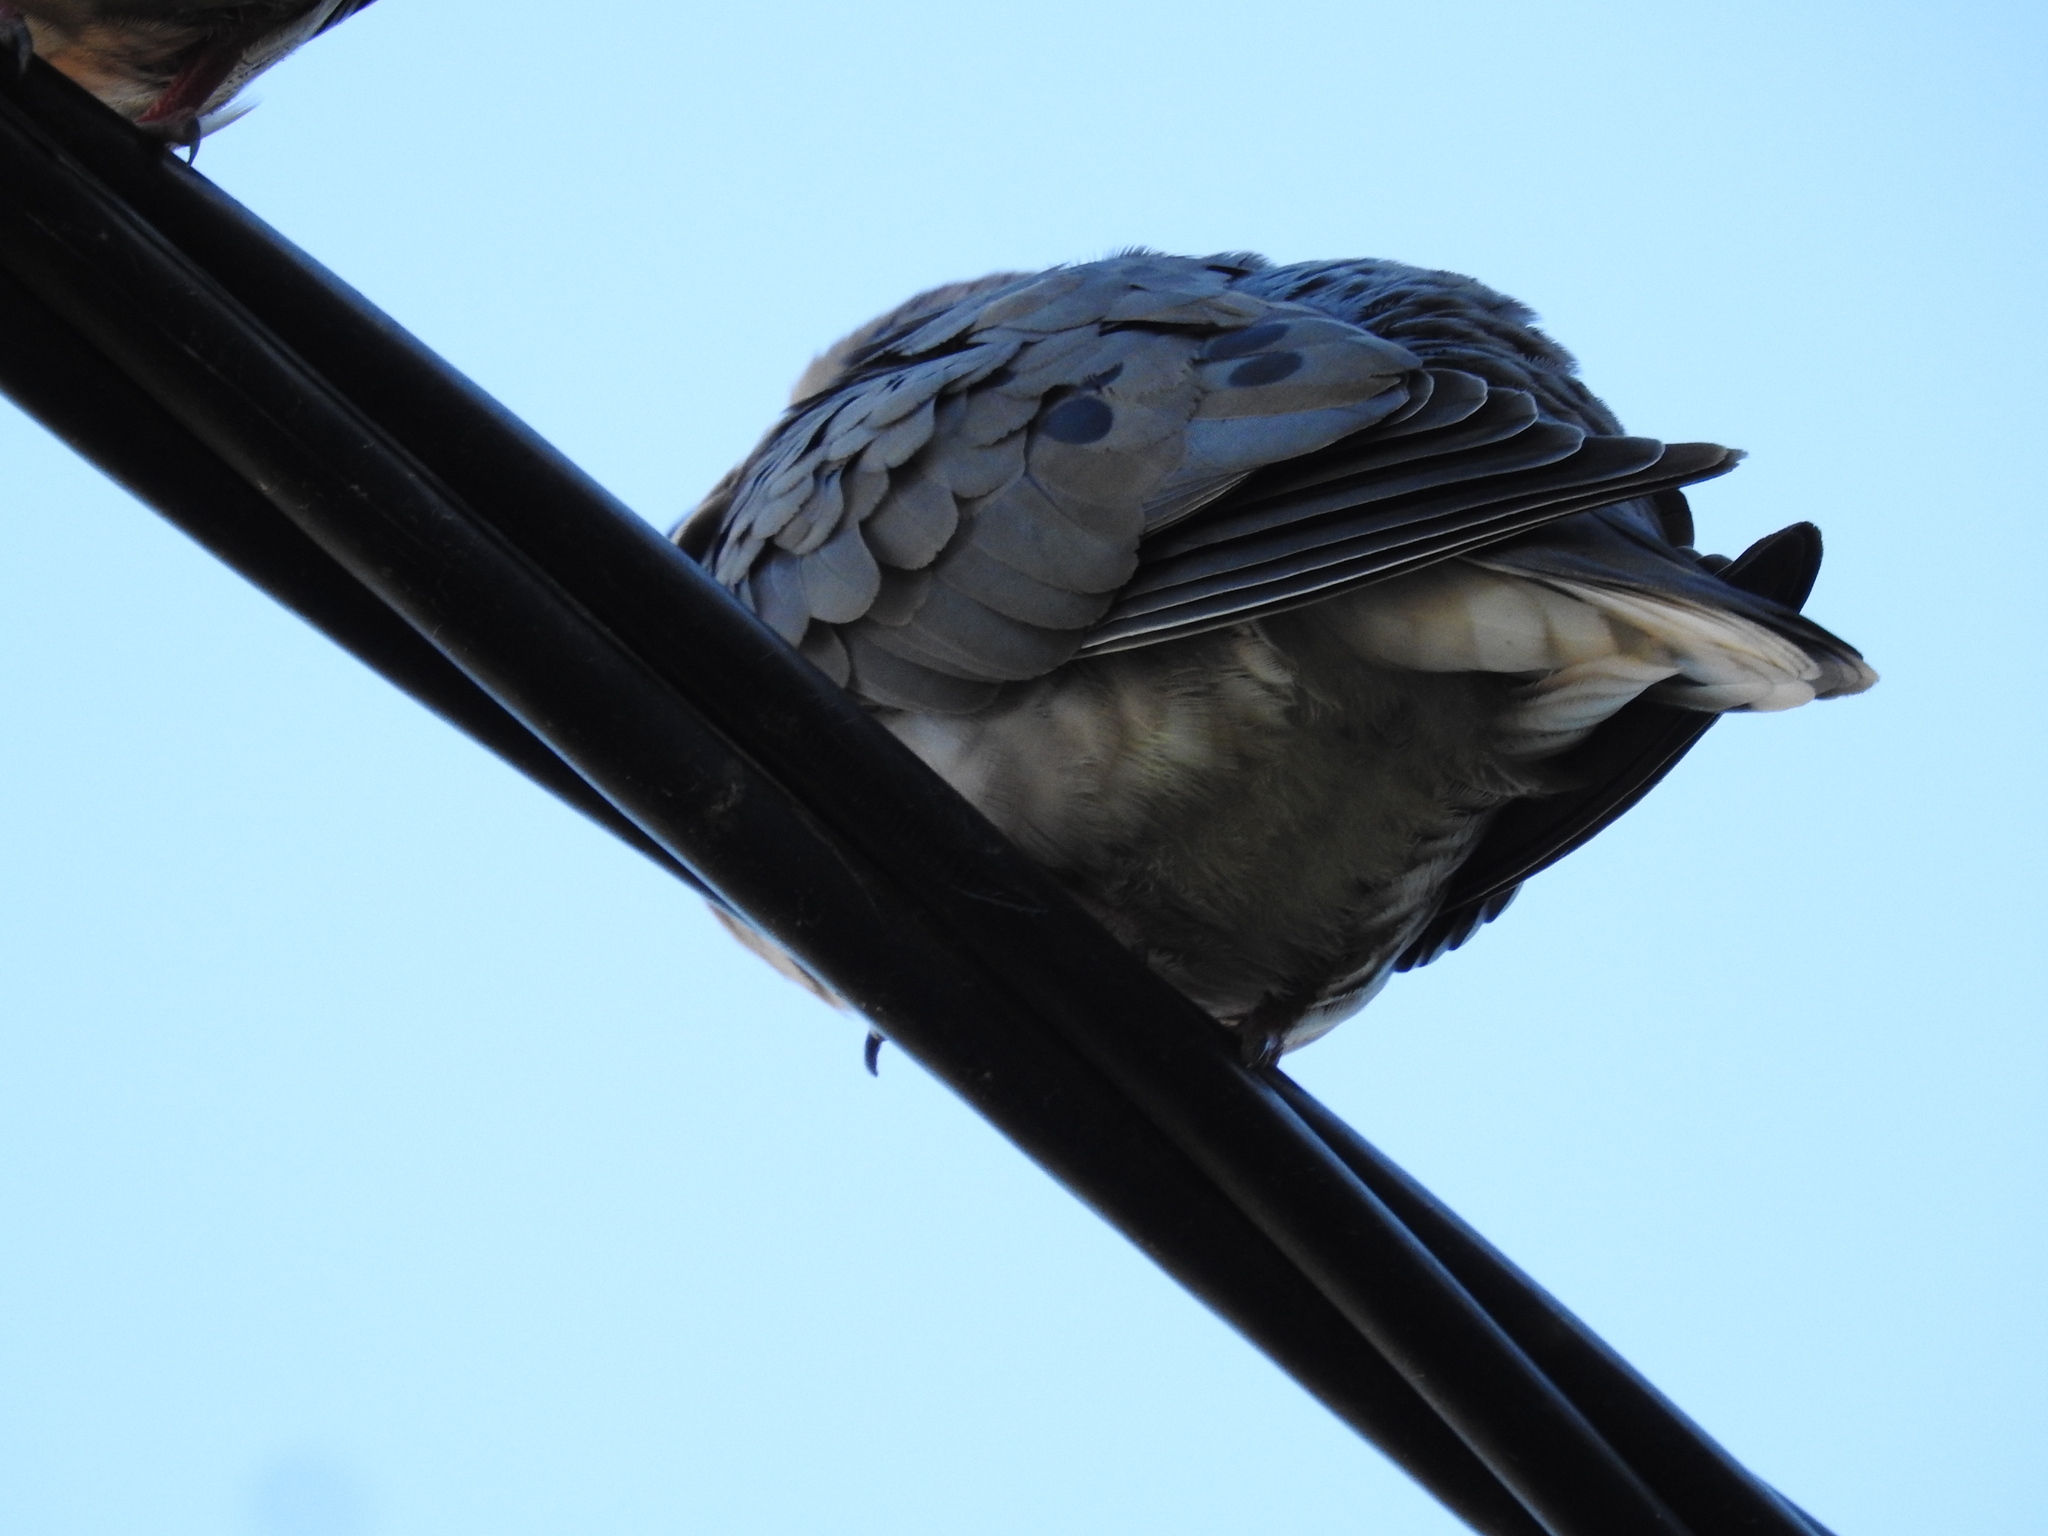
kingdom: Animalia
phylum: Chordata
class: Aves
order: Columbiformes
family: Columbidae
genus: Zenaida
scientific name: Zenaida auriculata
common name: Eared dove
